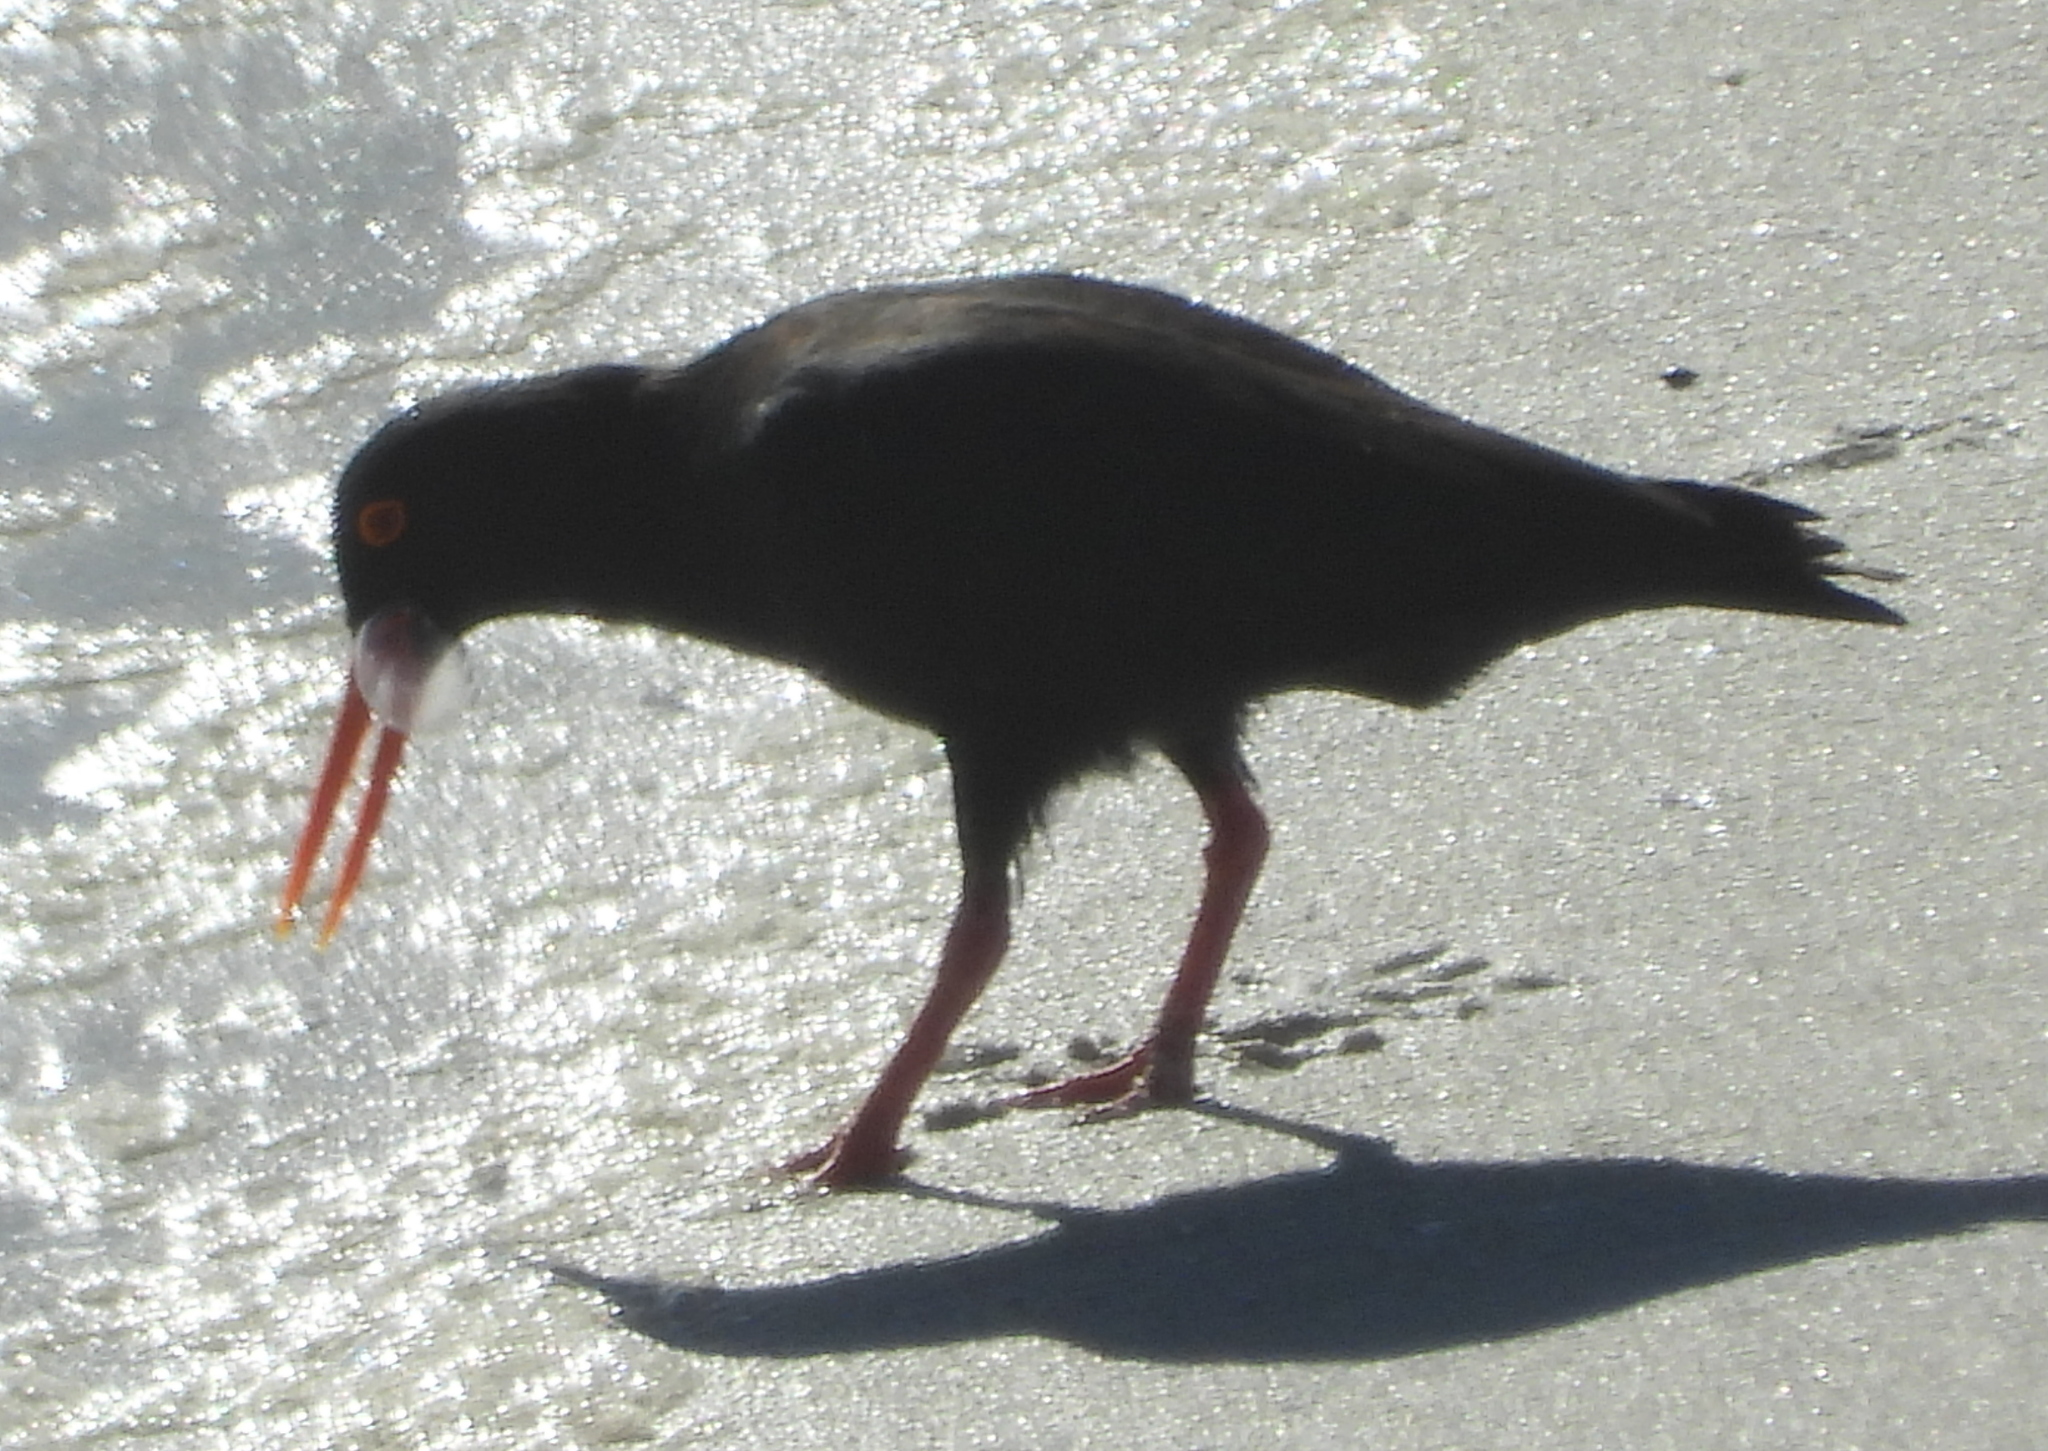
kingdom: Animalia
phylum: Chordata
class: Aves
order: Charadriiformes
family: Haematopodidae
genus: Haematopus
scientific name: Haematopus moquini
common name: African oystercatcher
